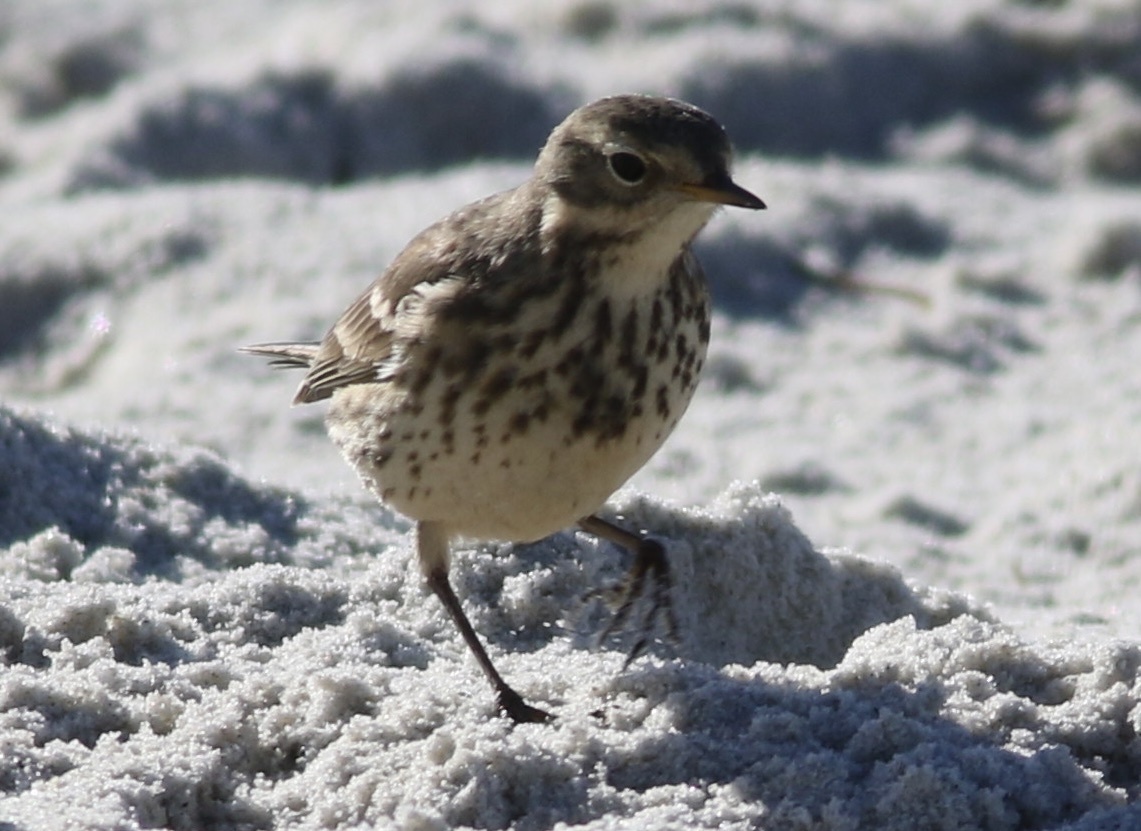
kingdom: Animalia
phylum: Chordata
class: Aves
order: Passeriformes
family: Motacillidae
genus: Anthus
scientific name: Anthus rubescens
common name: Buff-bellied pipit
